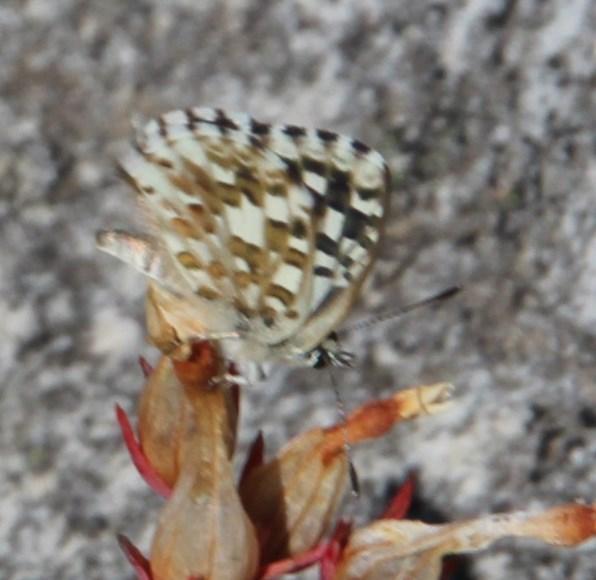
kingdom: Animalia
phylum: Arthropoda
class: Insecta
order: Lepidoptera
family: Lycaenidae
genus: Tarucus
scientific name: Tarucus thespis
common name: Vivid dotted blue
